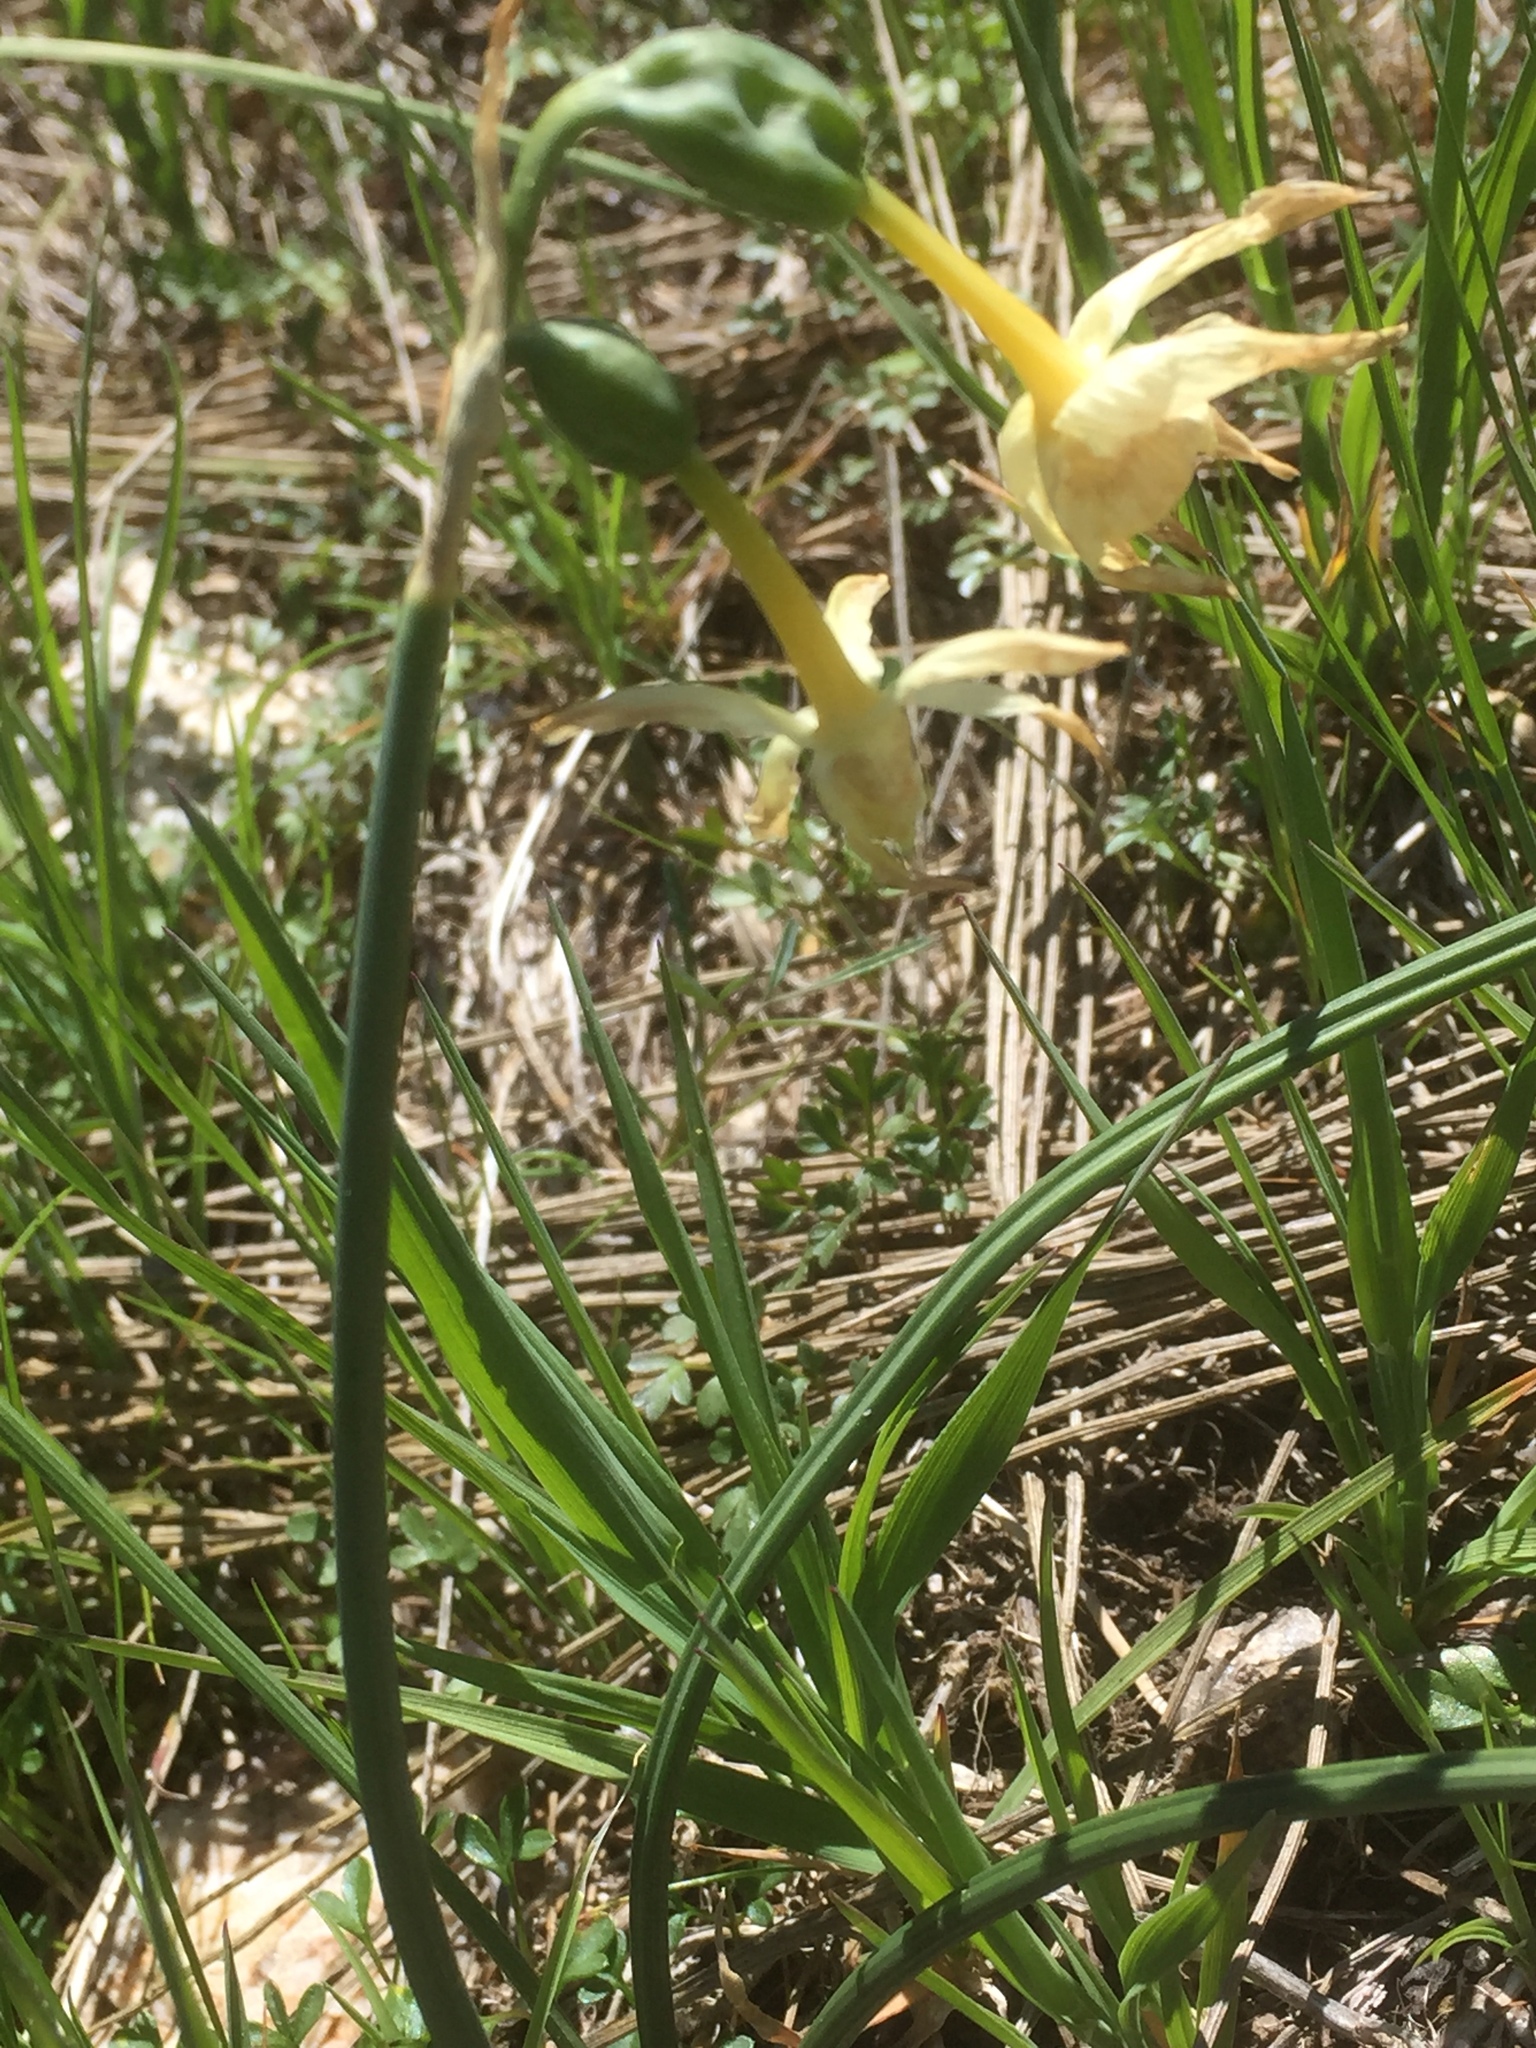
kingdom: Plantae
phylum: Tracheophyta
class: Liliopsida
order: Asparagales
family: Amaryllidaceae
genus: Narcissus
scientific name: Narcissus triandrus
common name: Angel's-tears
